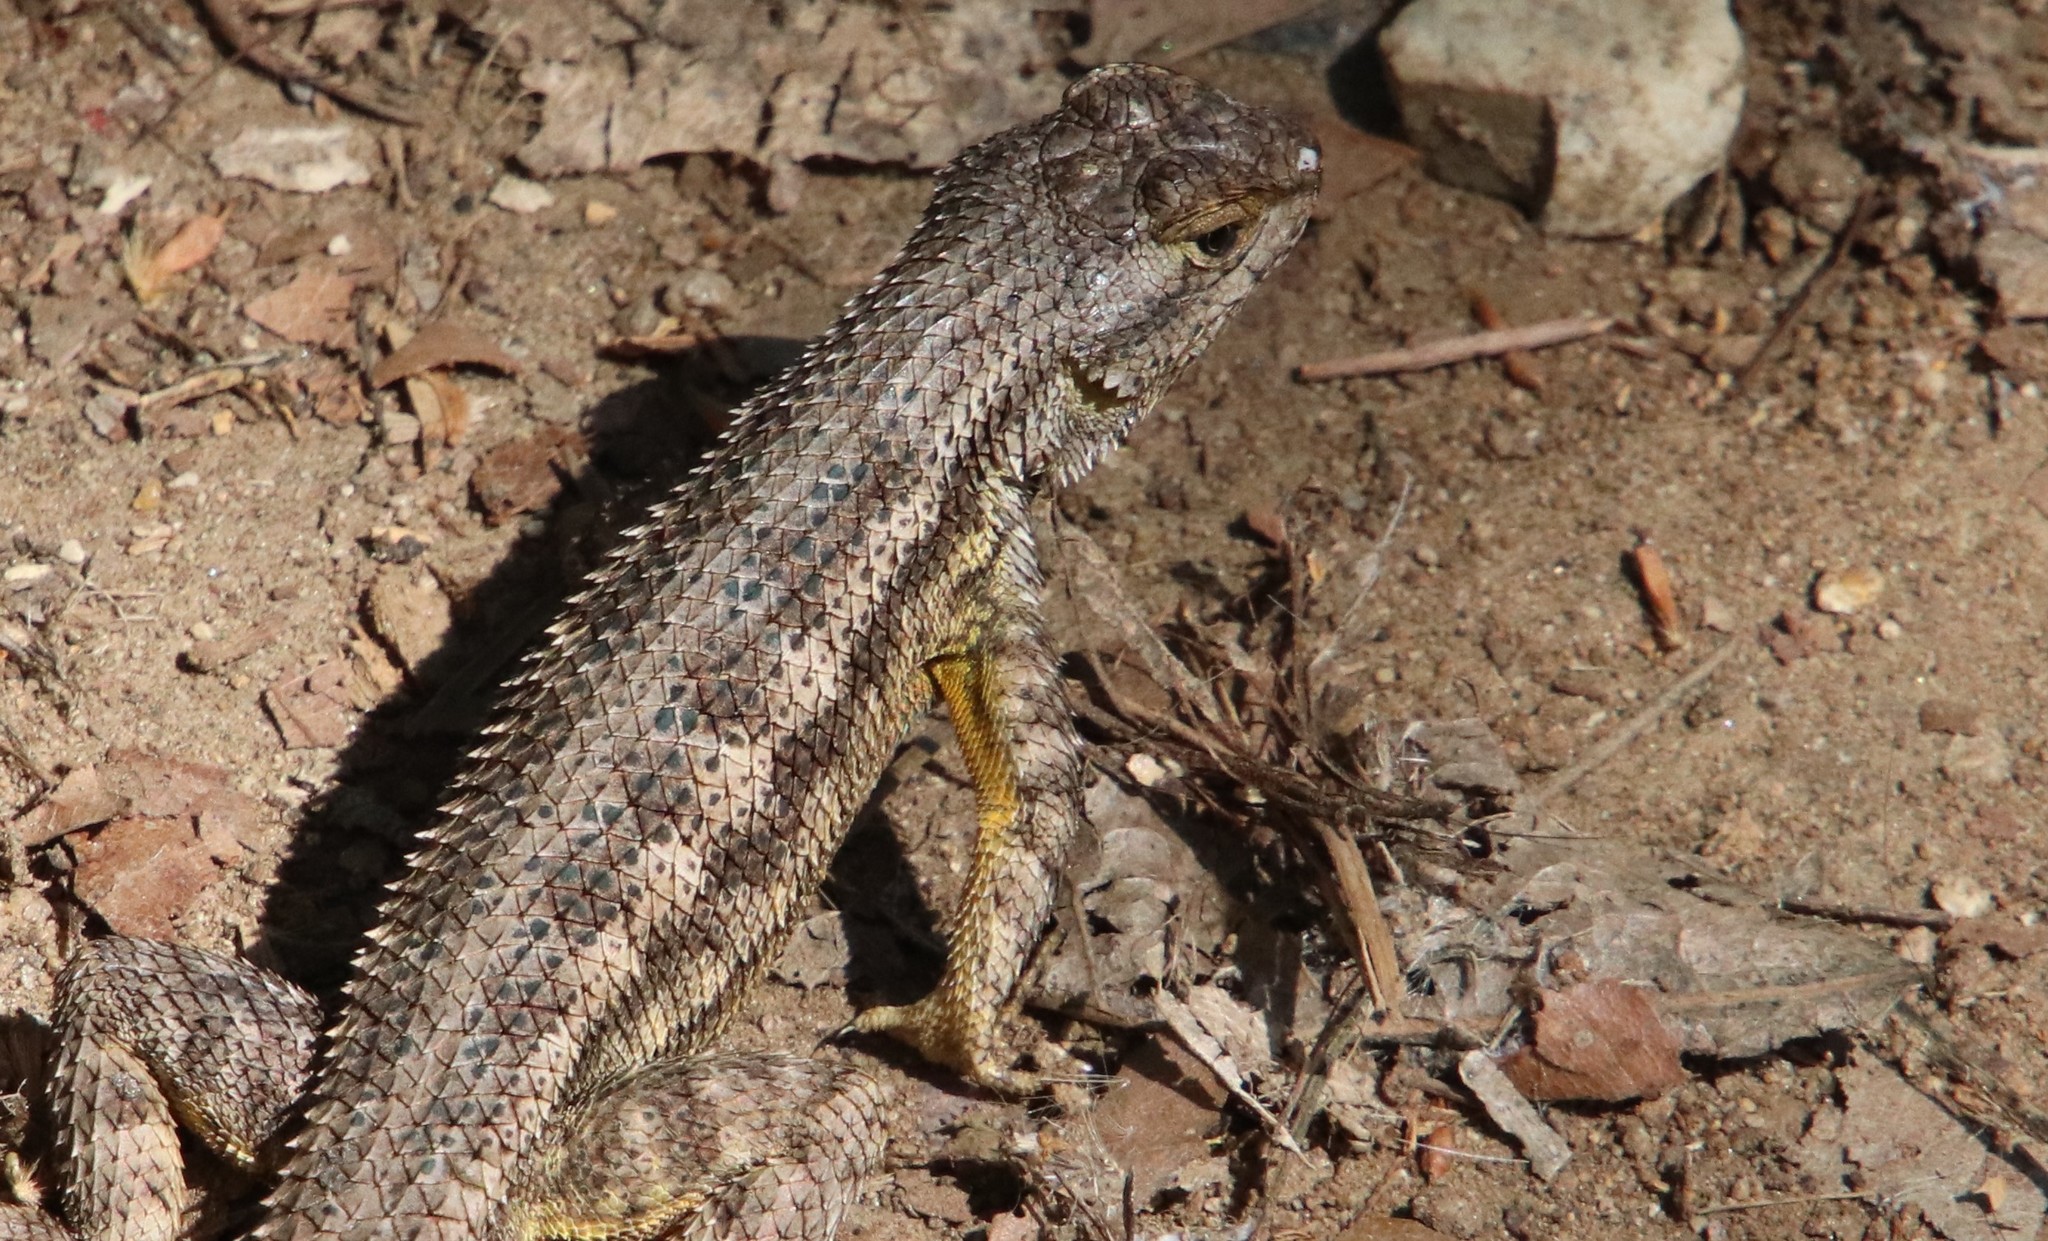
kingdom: Animalia
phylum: Chordata
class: Squamata
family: Phrynosomatidae
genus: Sceloporus
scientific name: Sceloporus occidentalis
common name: Western fence lizard
